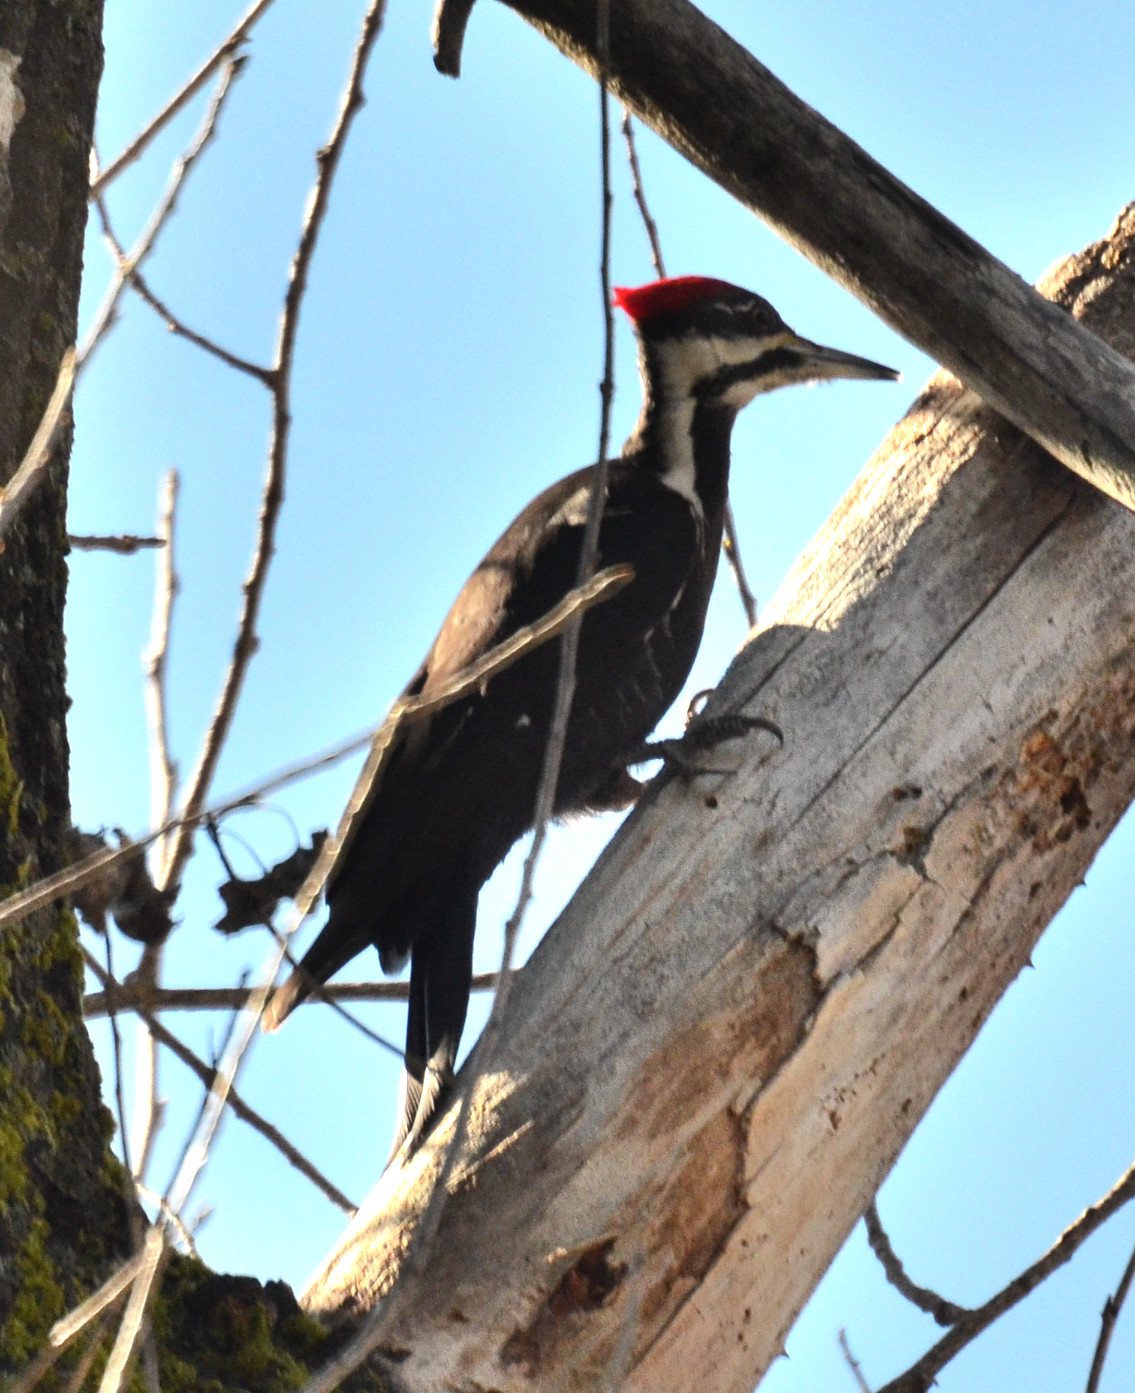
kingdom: Animalia
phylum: Chordata
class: Aves
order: Piciformes
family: Picidae
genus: Dryocopus
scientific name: Dryocopus pileatus
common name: Pileated woodpecker
